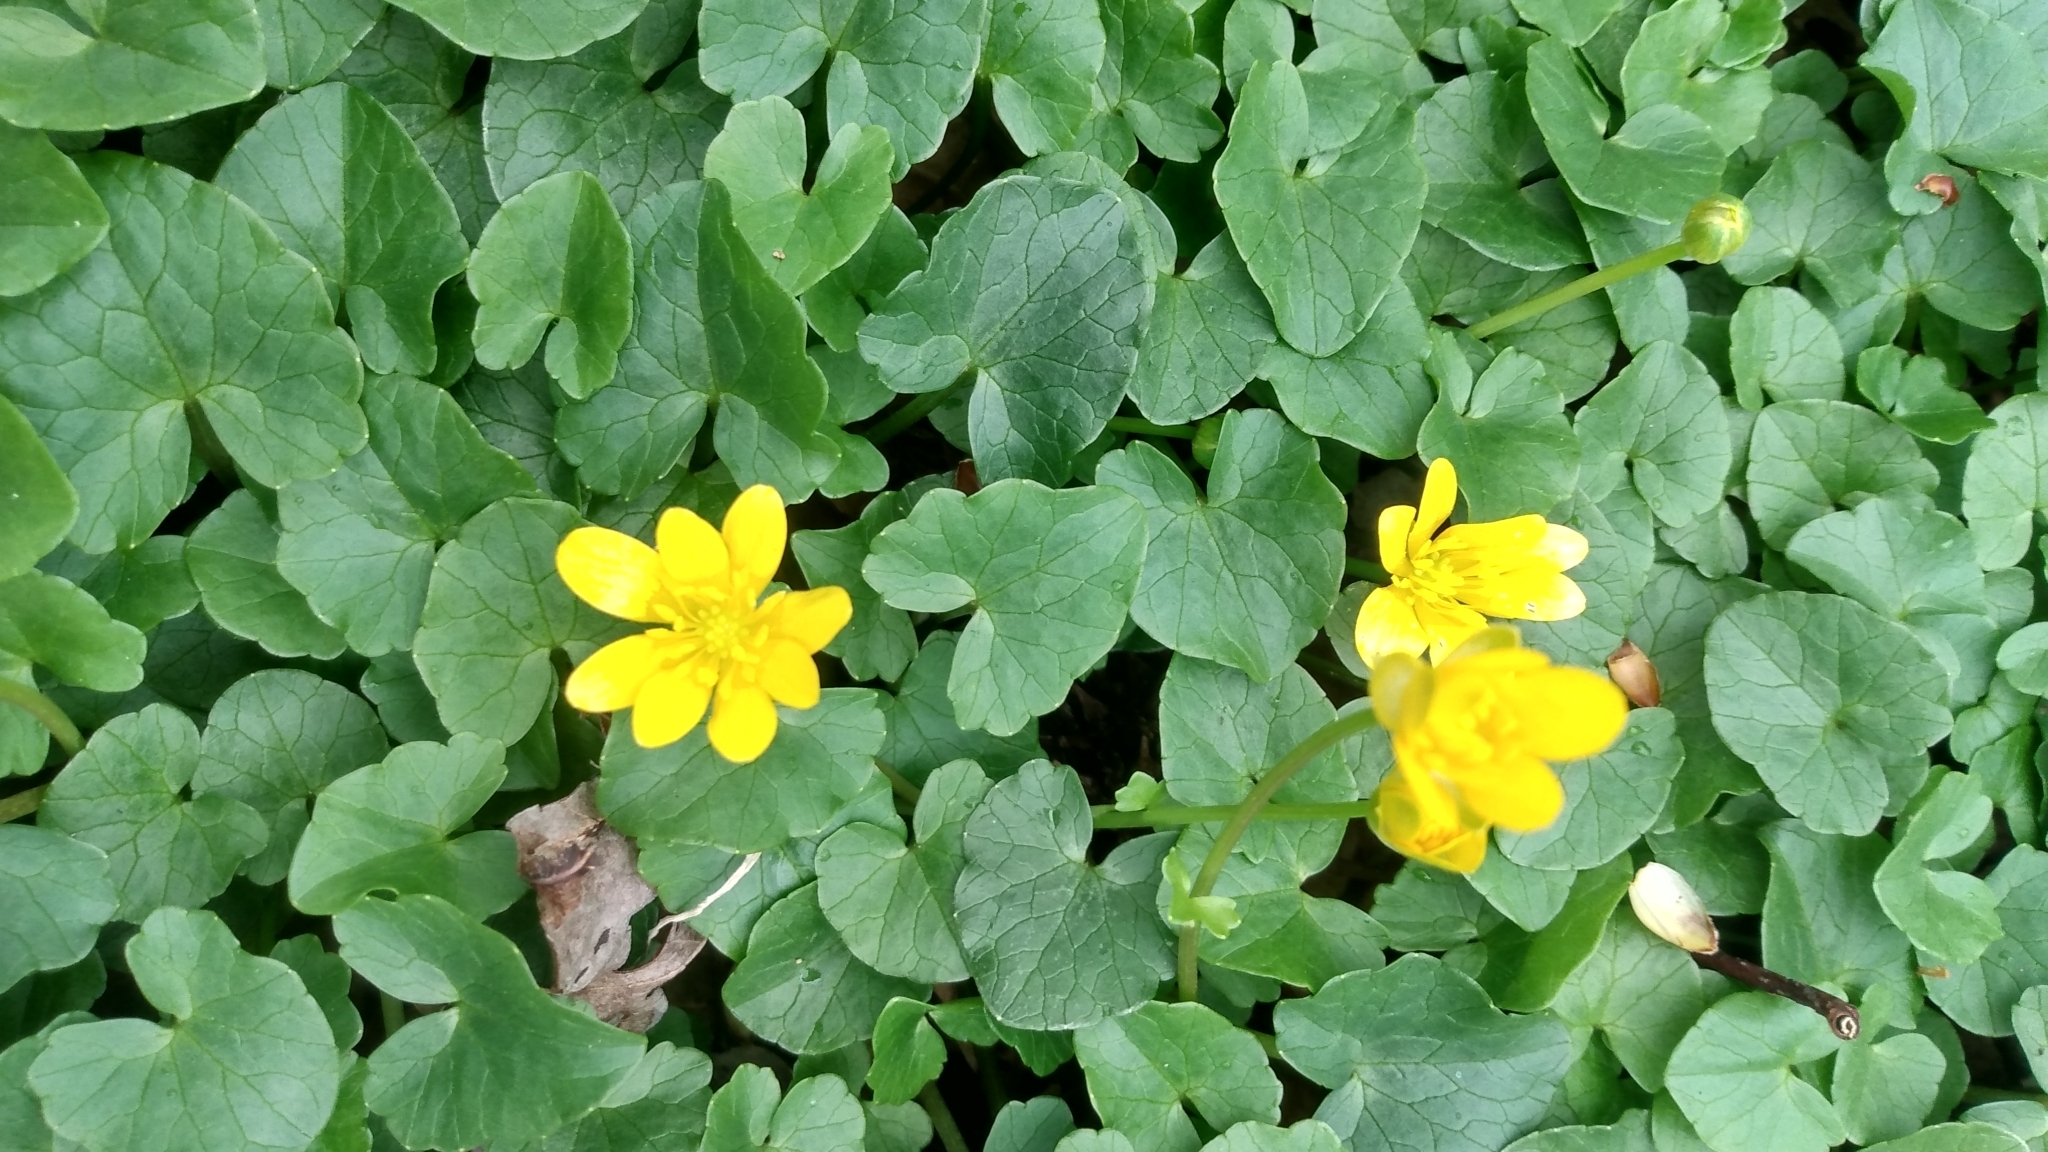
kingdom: Plantae
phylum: Tracheophyta
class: Magnoliopsida
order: Ranunculales
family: Ranunculaceae
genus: Ficaria
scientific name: Ficaria verna
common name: Lesser celandine
